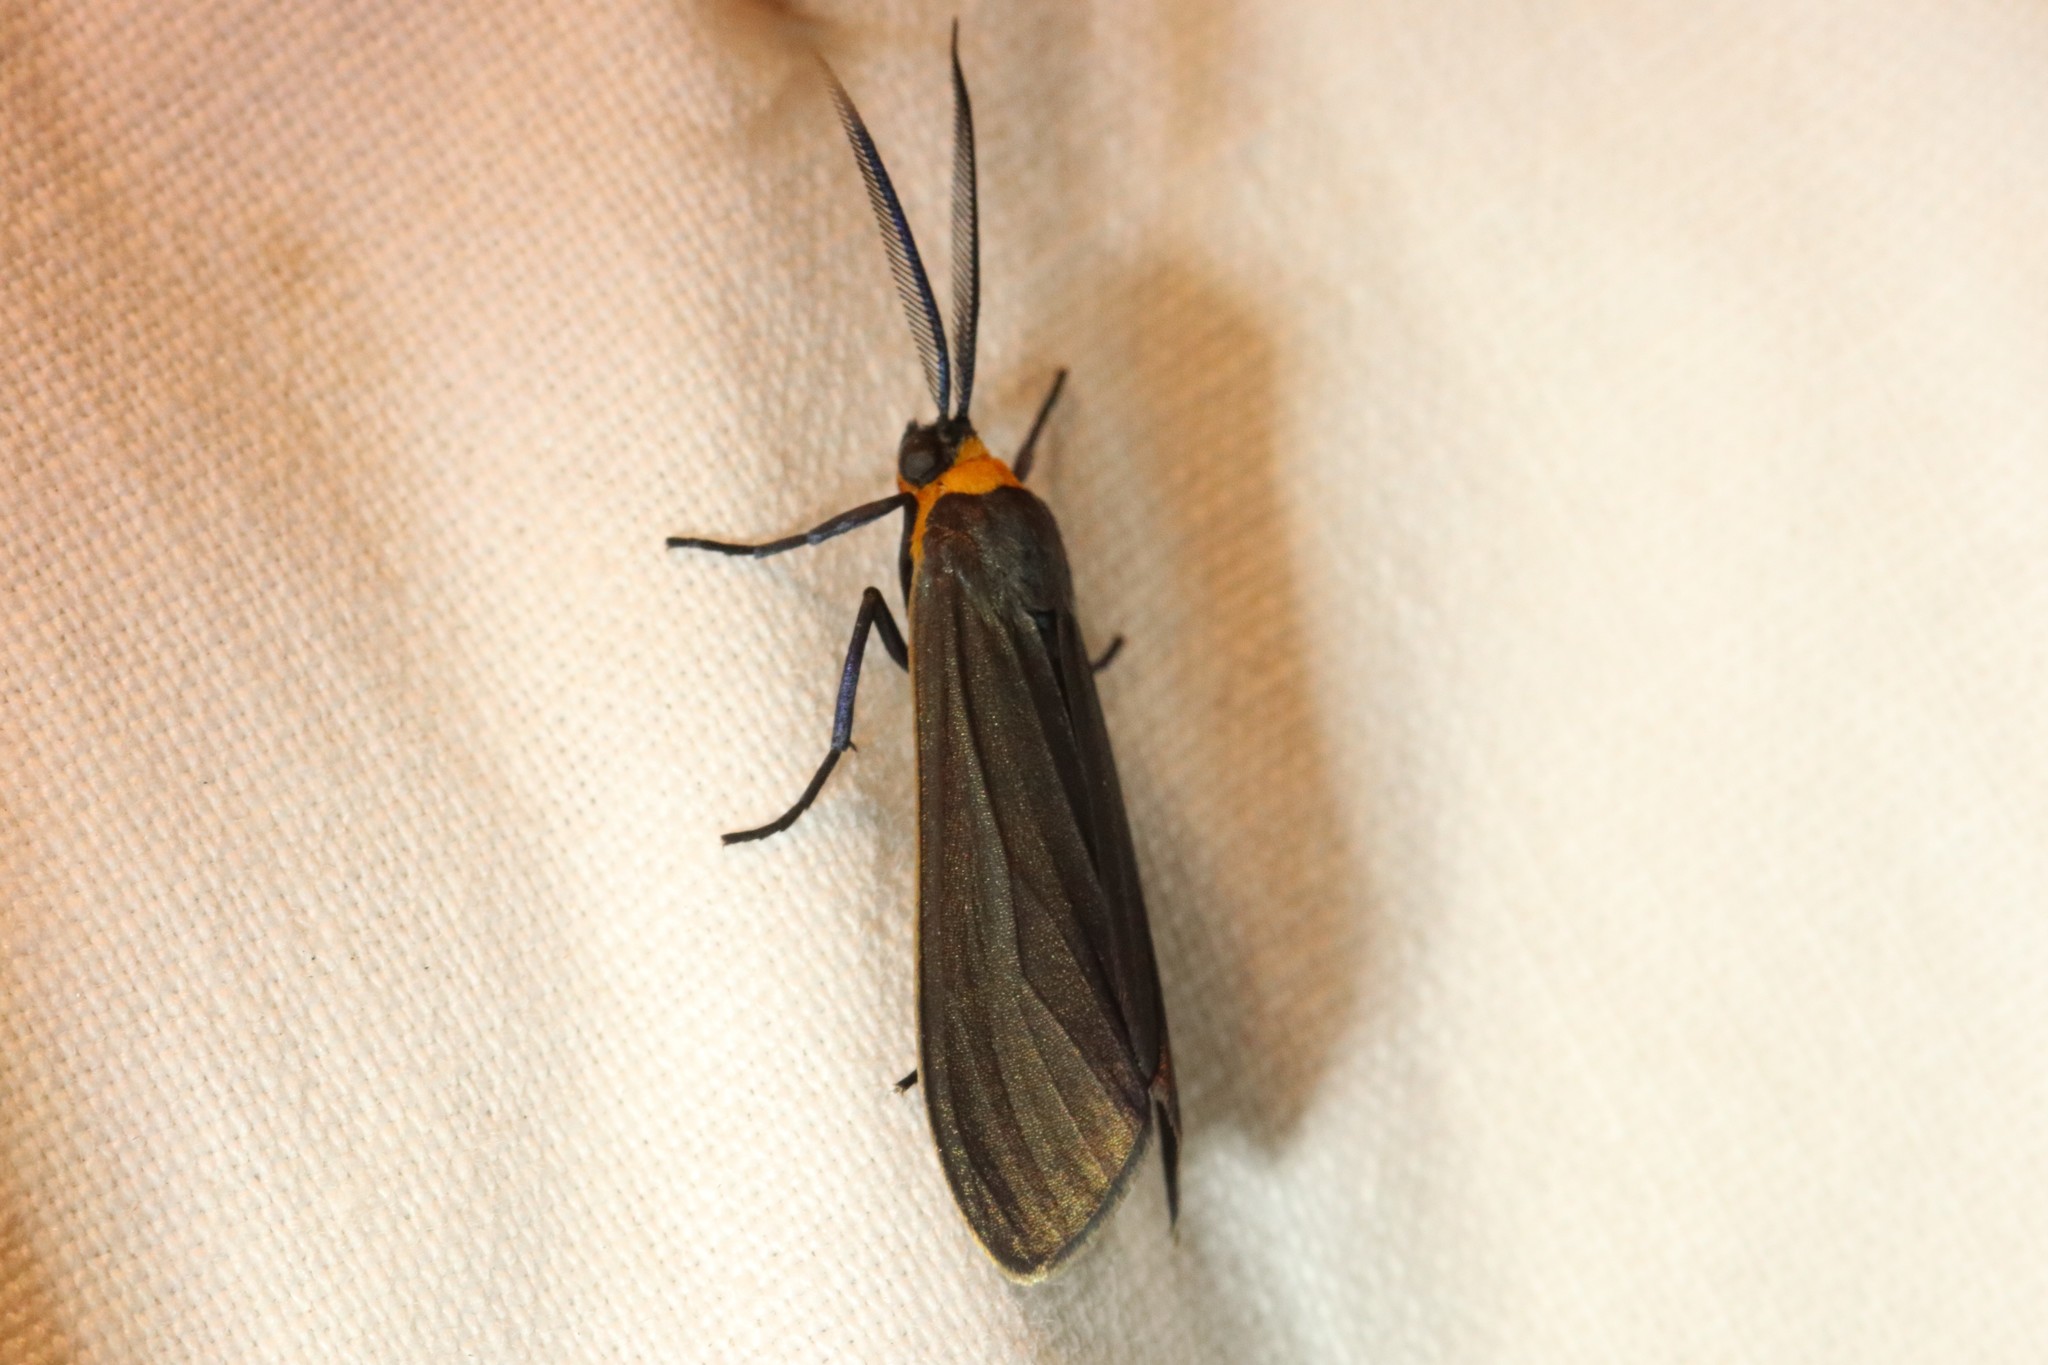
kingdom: Animalia
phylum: Arthropoda
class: Insecta
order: Lepidoptera
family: Erebidae
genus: Cisseps
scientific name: Cisseps fulvicollis
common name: Yellow-collared scape moth
